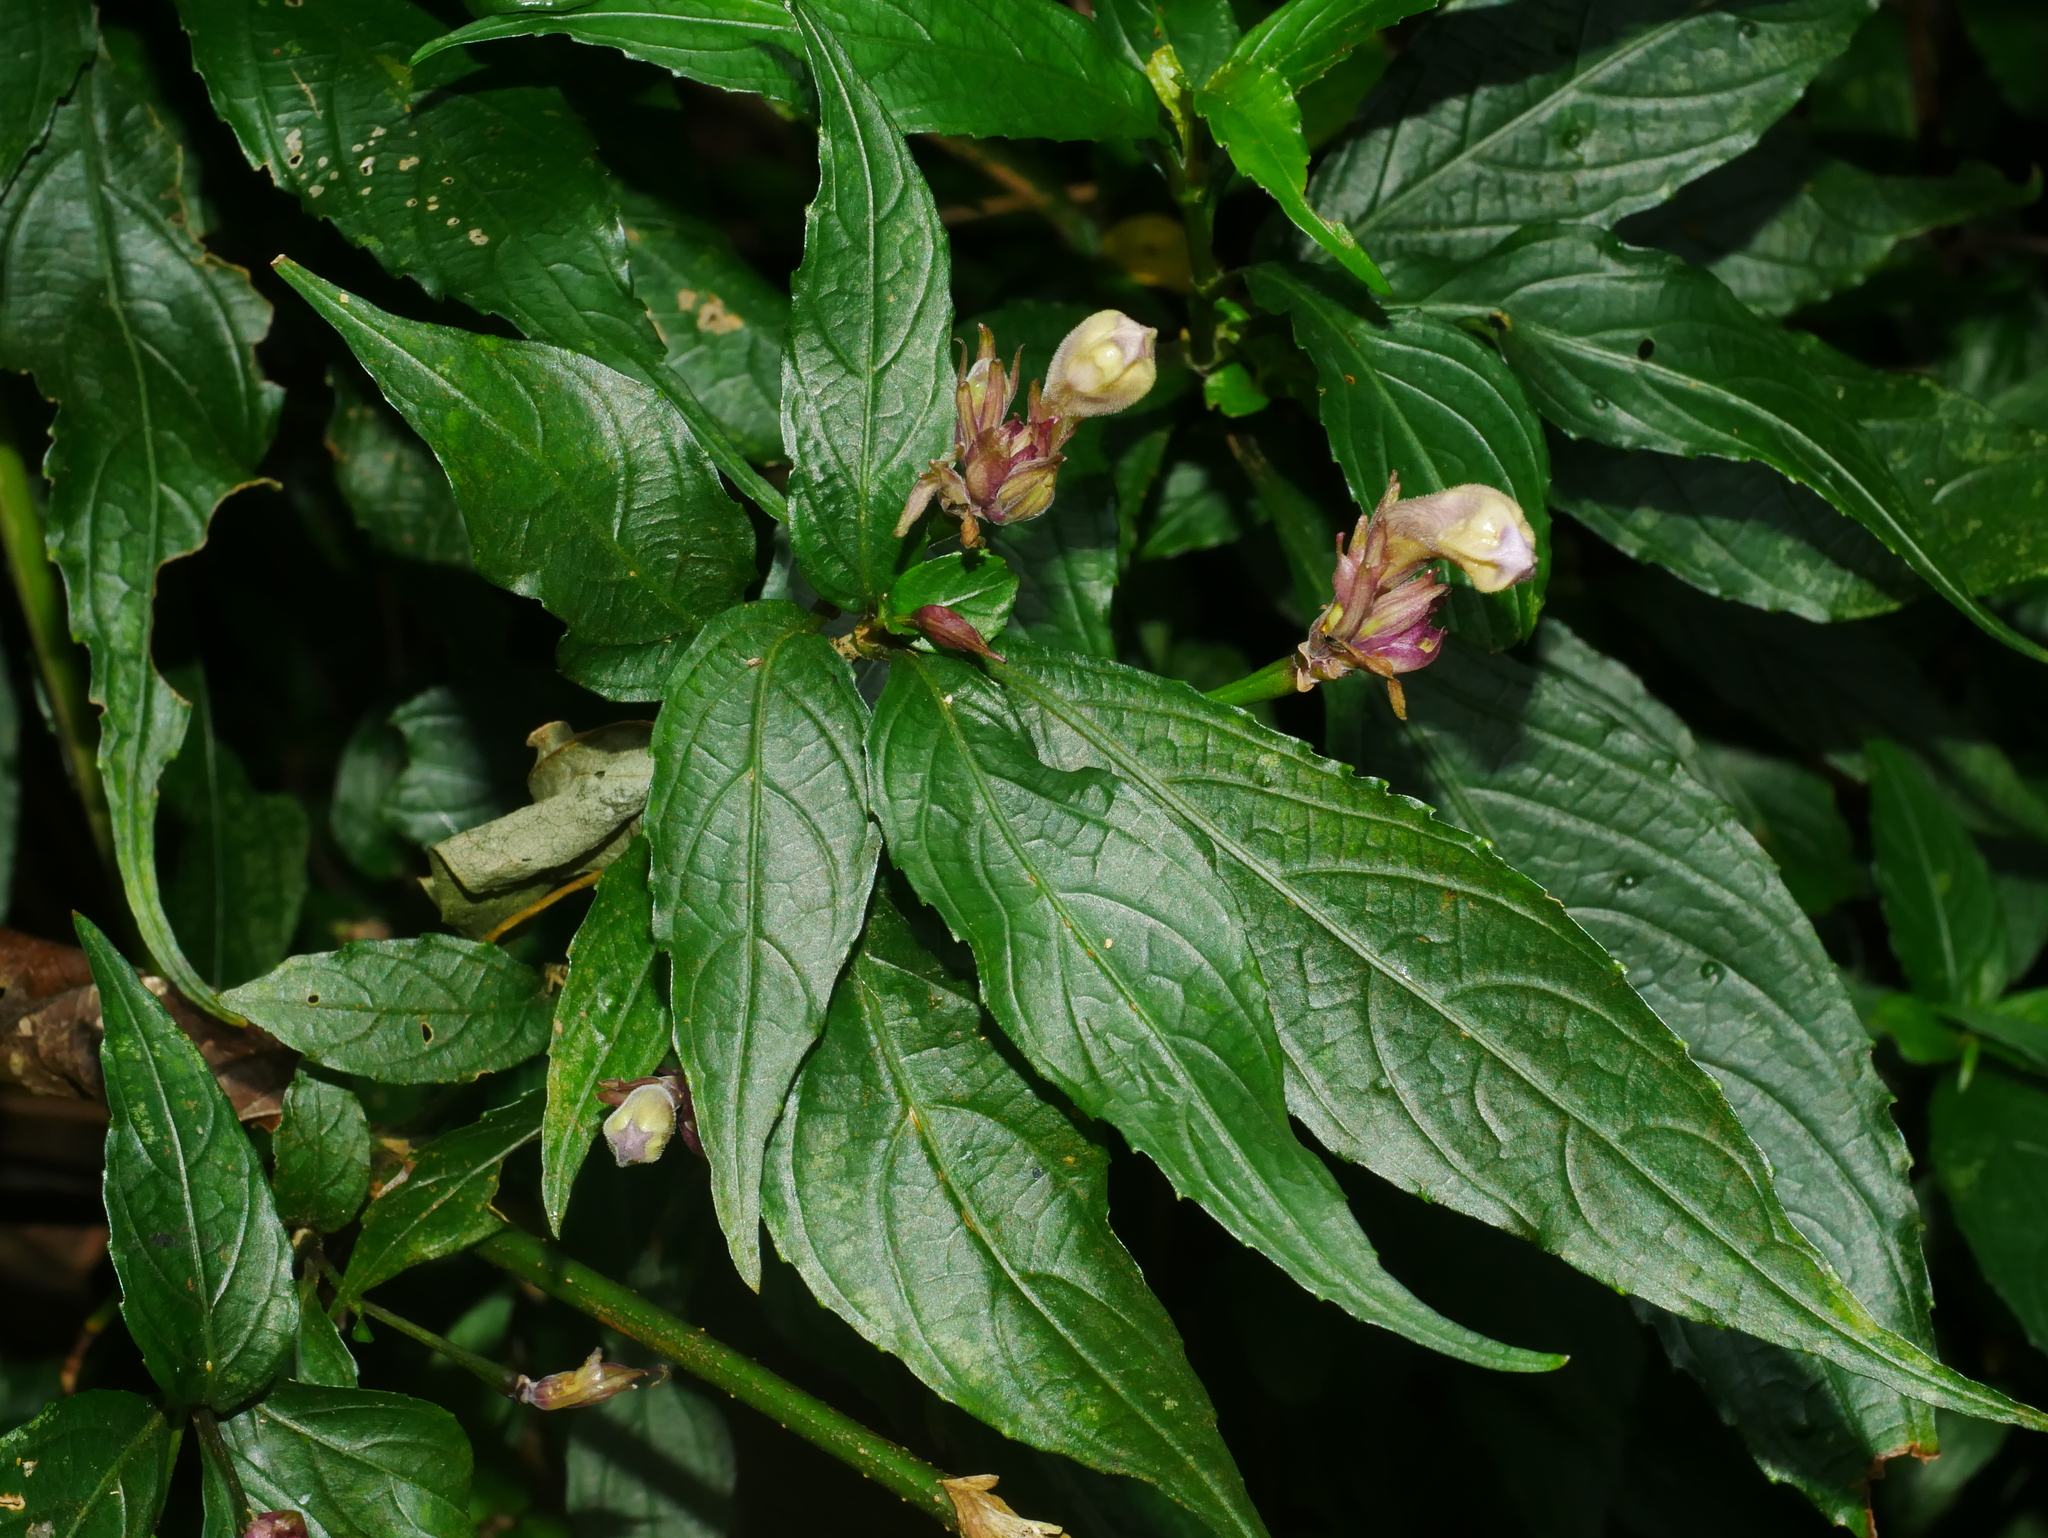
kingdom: Plantae
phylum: Tracheophyta
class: Magnoliopsida
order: Lamiales
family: Acanthaceae
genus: Strobilanthes
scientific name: Strobilanthes pentastemonoides
